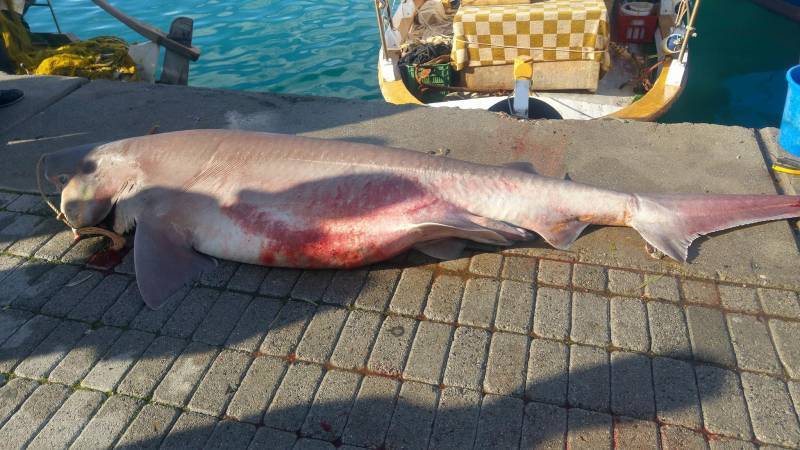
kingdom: Animalia
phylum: Chordata
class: Elasmobranchii
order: Hexanchiformes
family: Hexanchidae
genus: Hexanchus
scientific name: Hexanchus griseus
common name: Bluntnose sixgill shark
